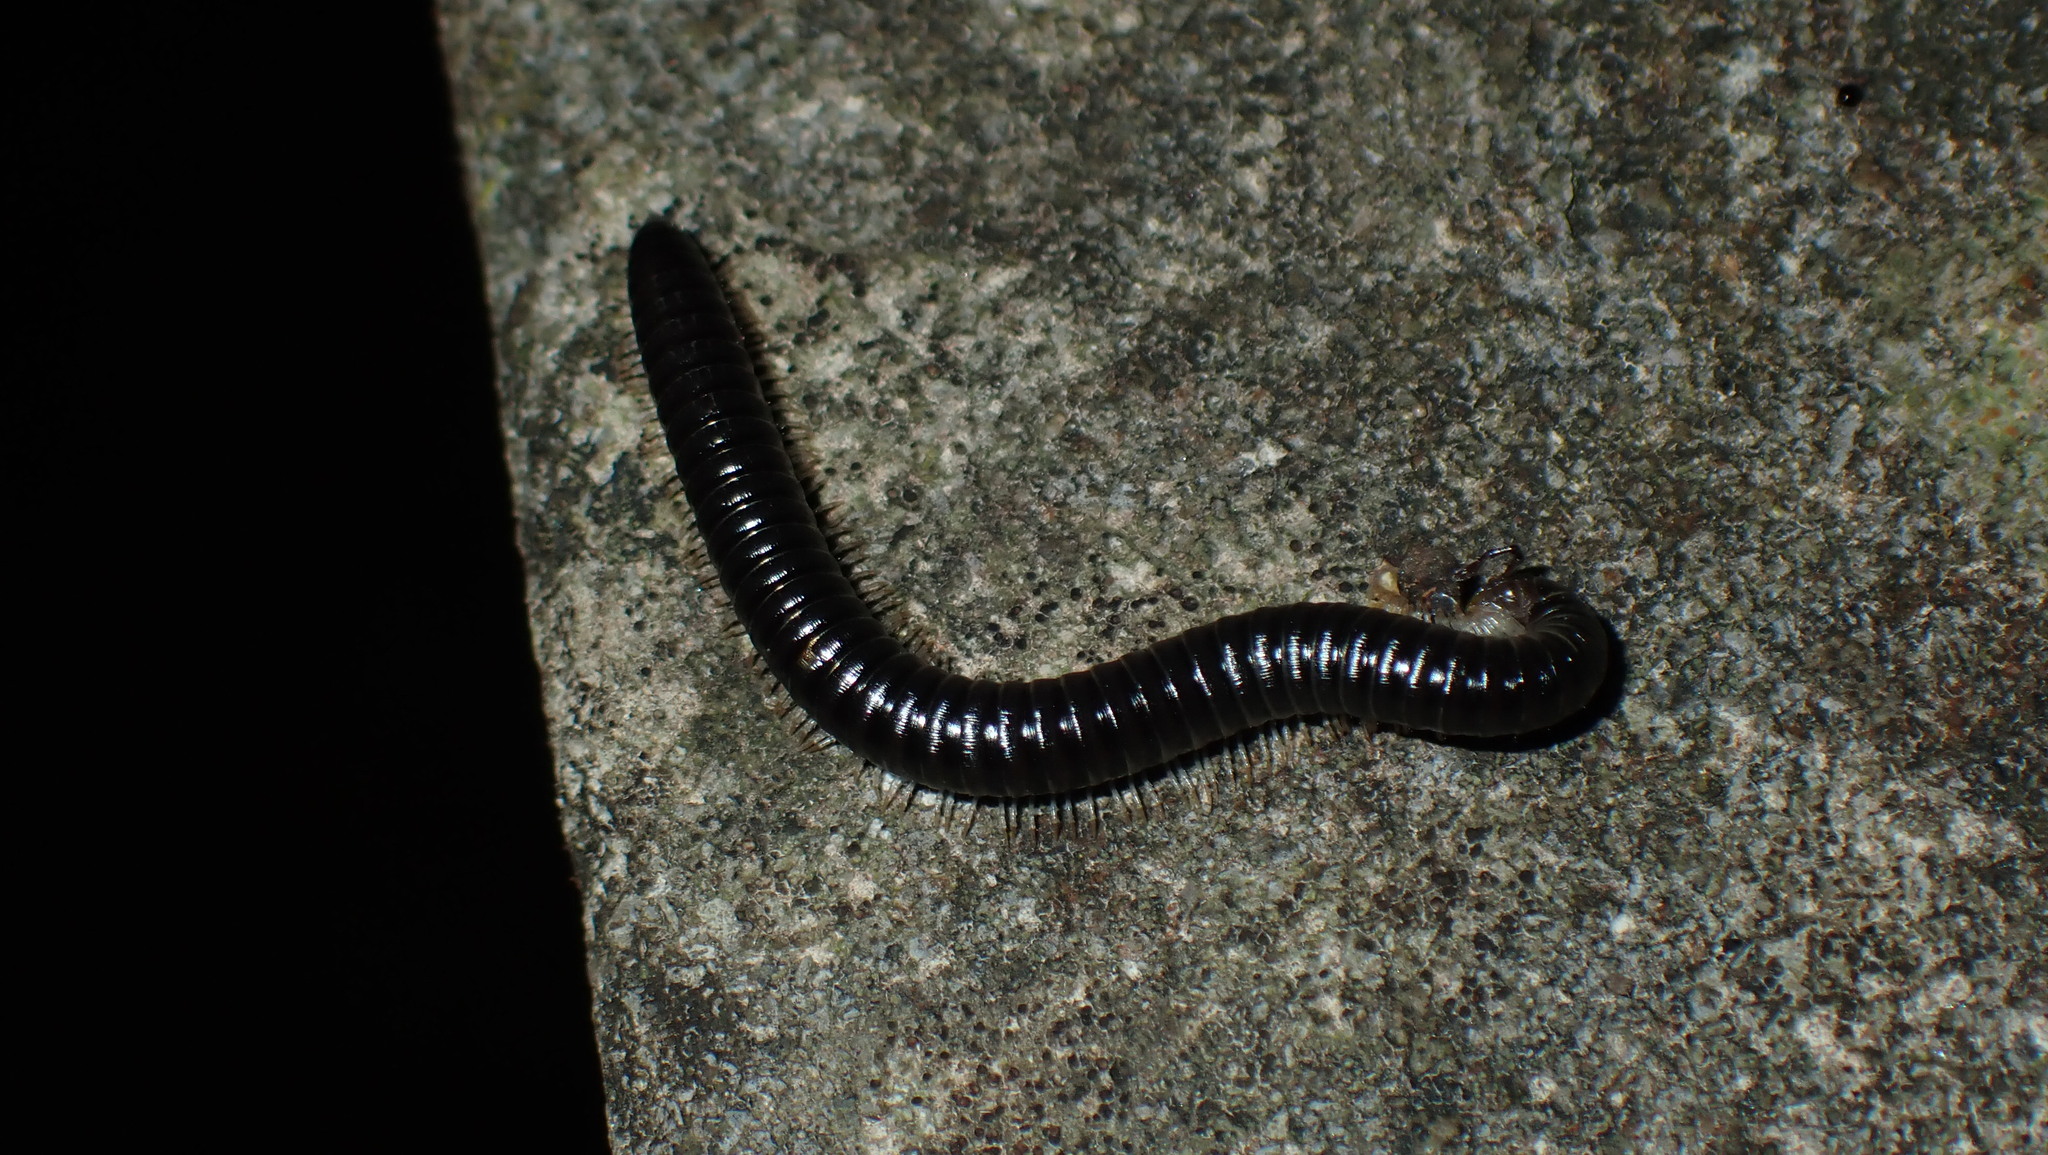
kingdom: Animalia
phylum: Arthropoda
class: Diplopoda
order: Julida
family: Julidae
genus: Tachypodoiulus
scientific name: Tachypodoiulus niger
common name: White-legged snake millipede
